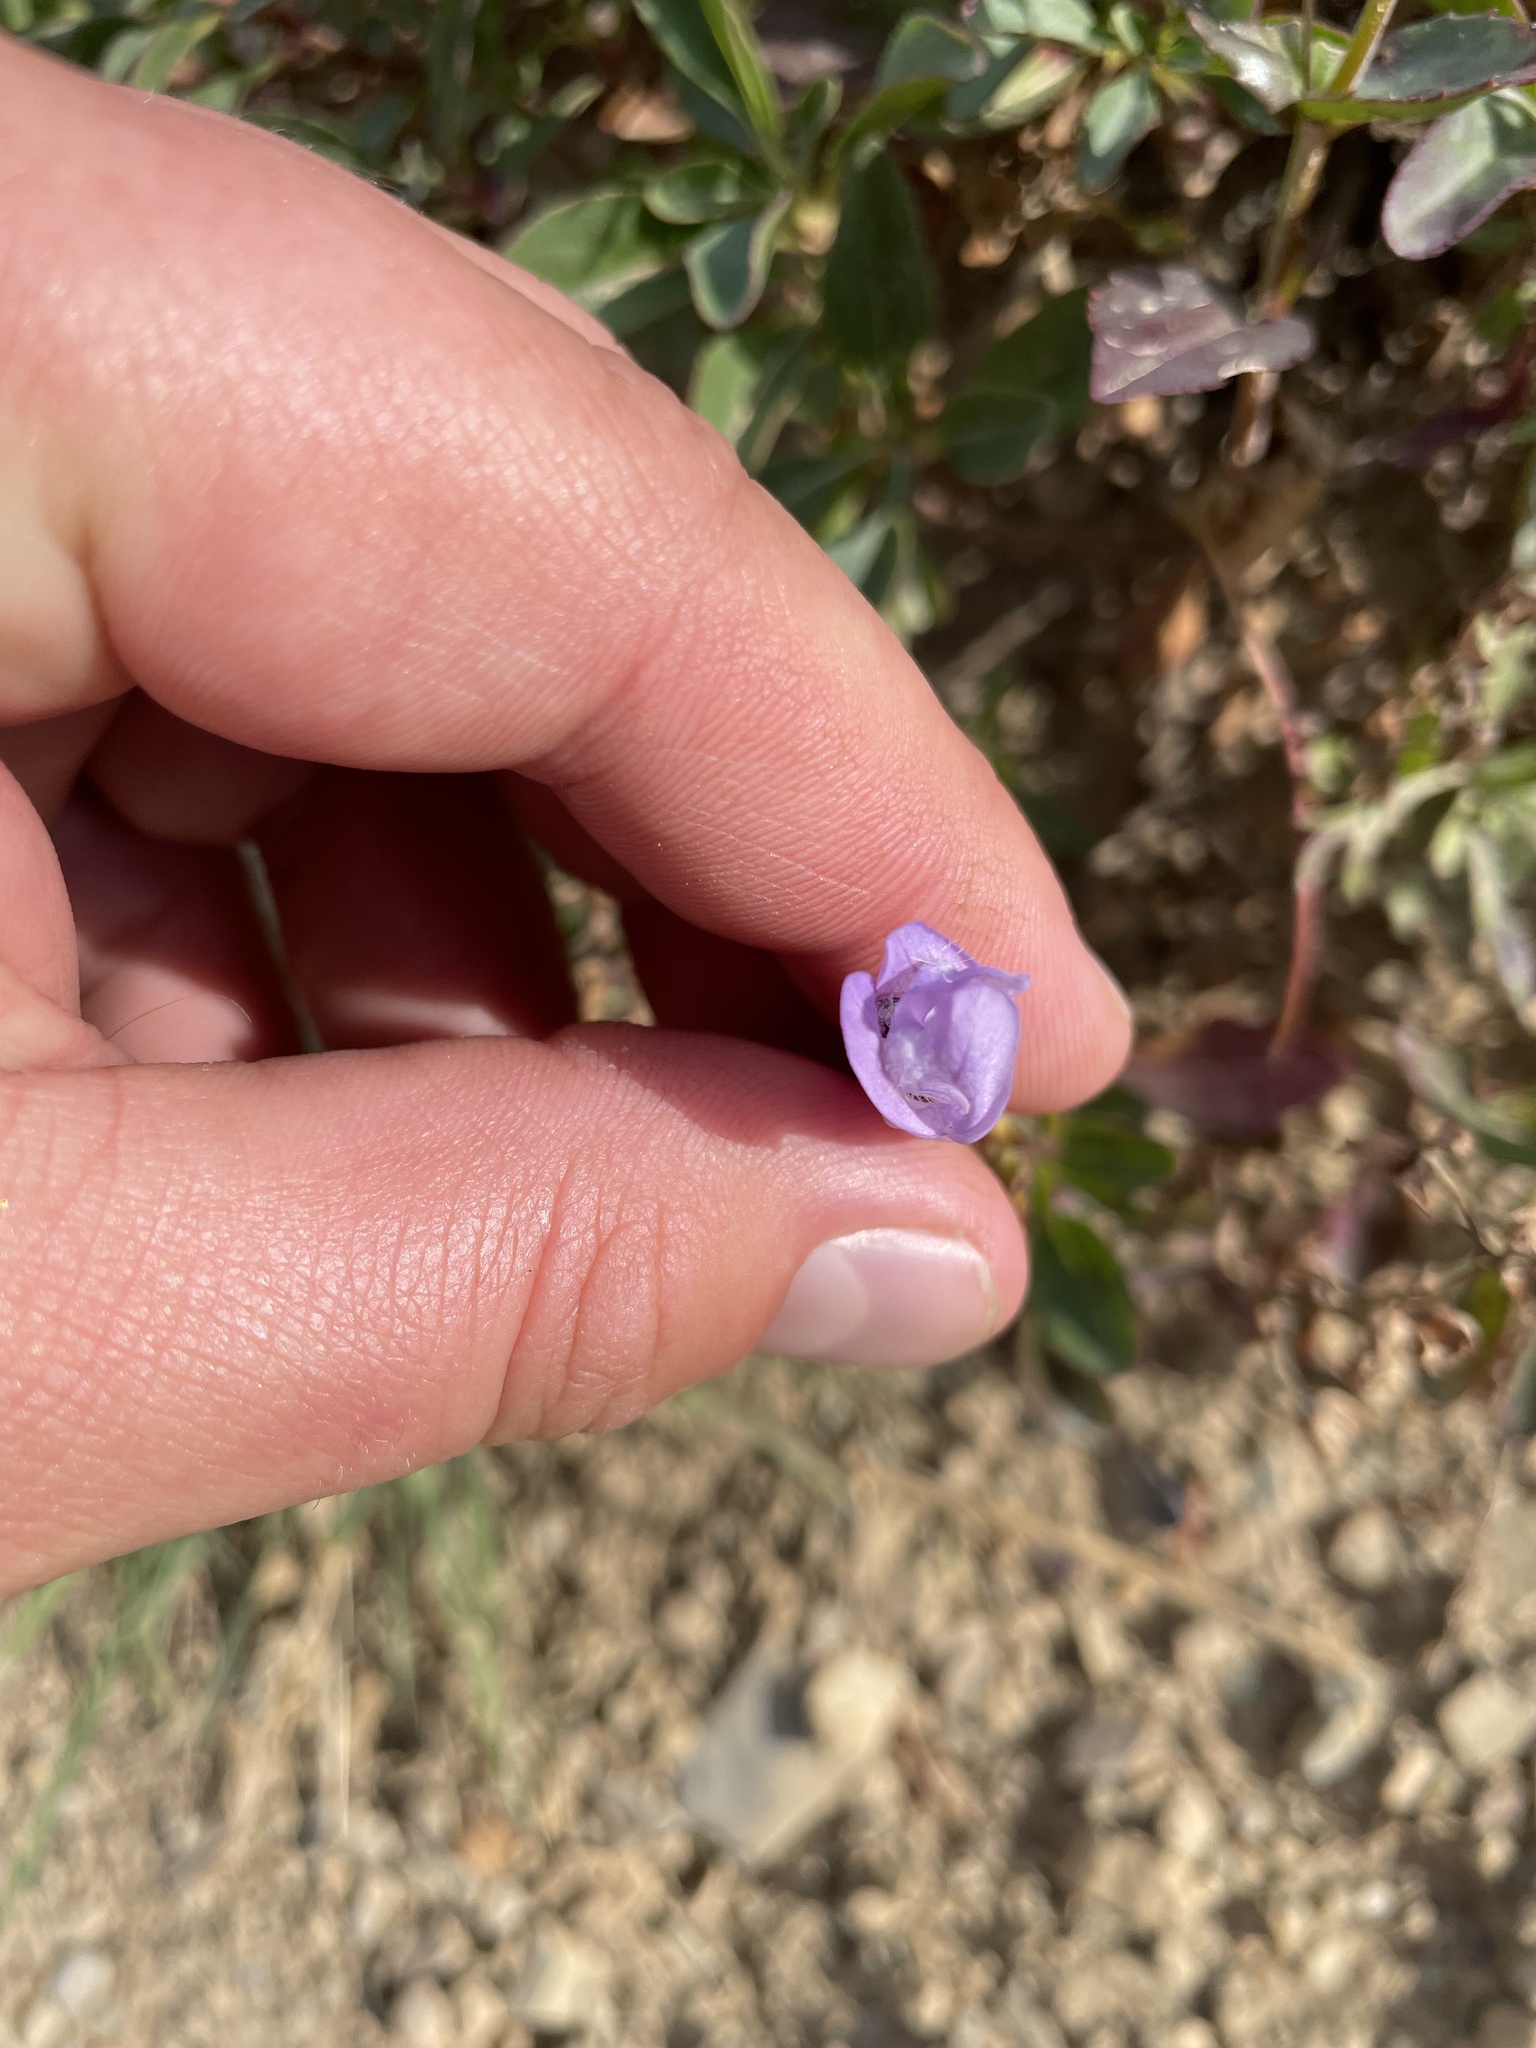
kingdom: Plantae
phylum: Tracheophyta
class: Magnoliopsida
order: Lamiales
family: Plantaginaceae
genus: Penstemon
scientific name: Penstemon ellipticus
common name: Alpine beardtongue
